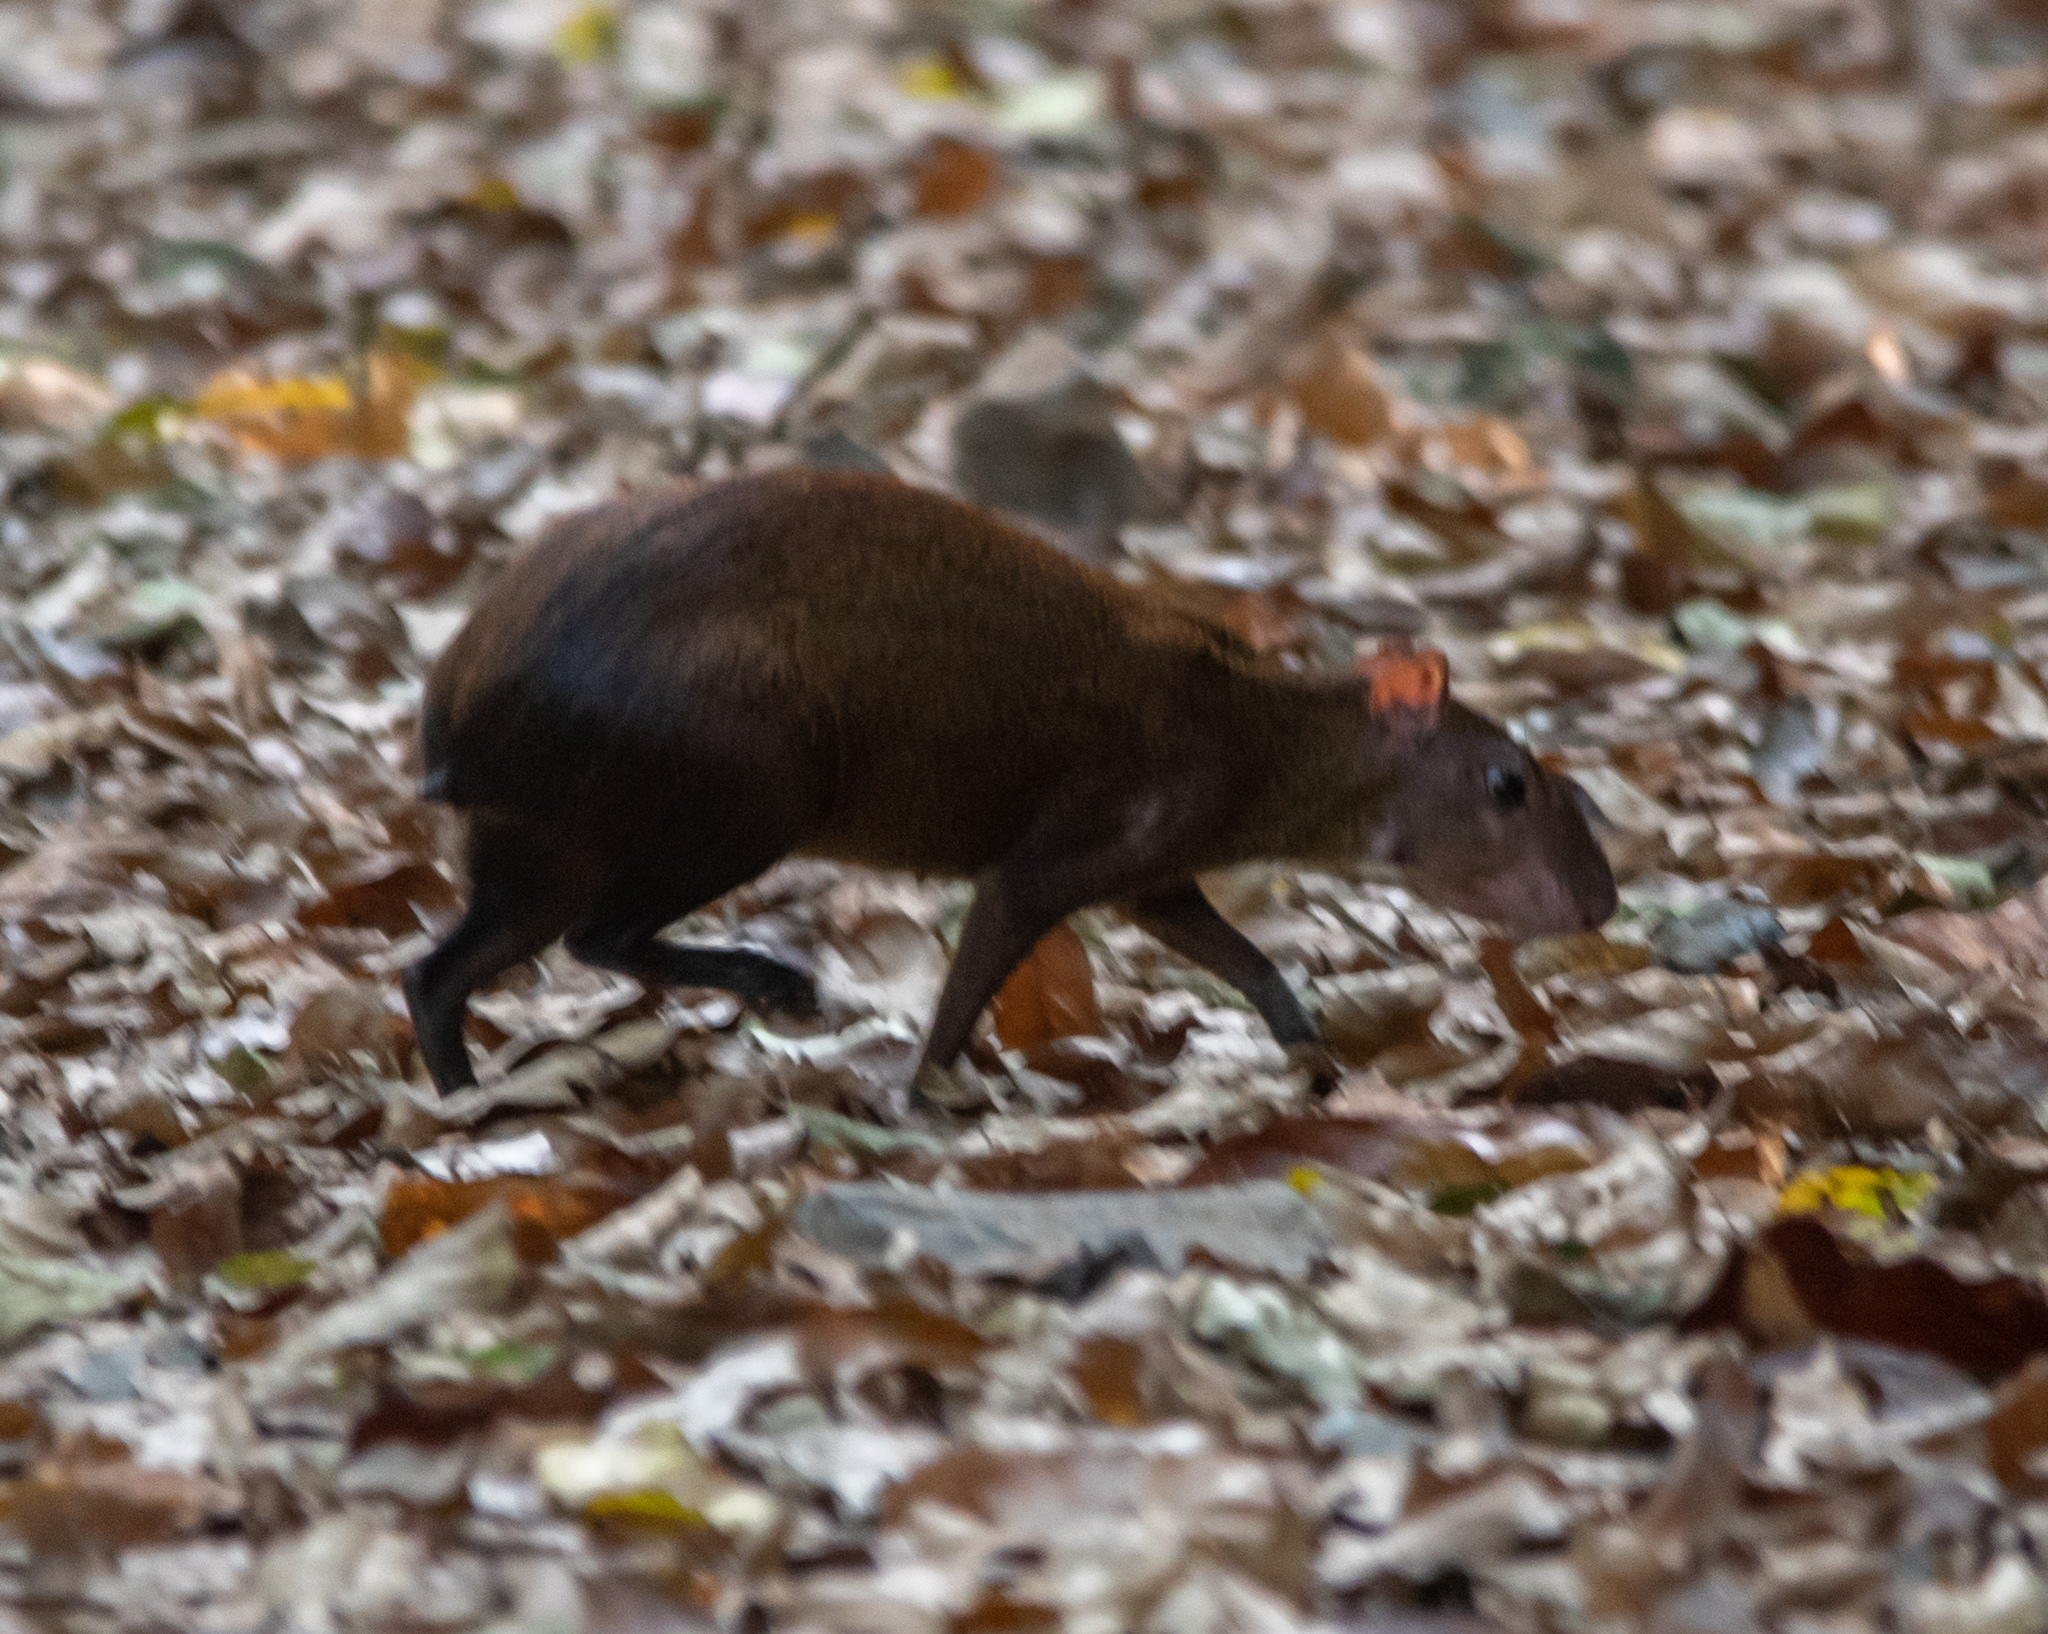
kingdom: Animalia
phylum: Chordata
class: Mammalia
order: Rodentia
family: Dasyproctidae
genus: Dasyprocta
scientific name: Dasyprocta punctata
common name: Central american agouti
